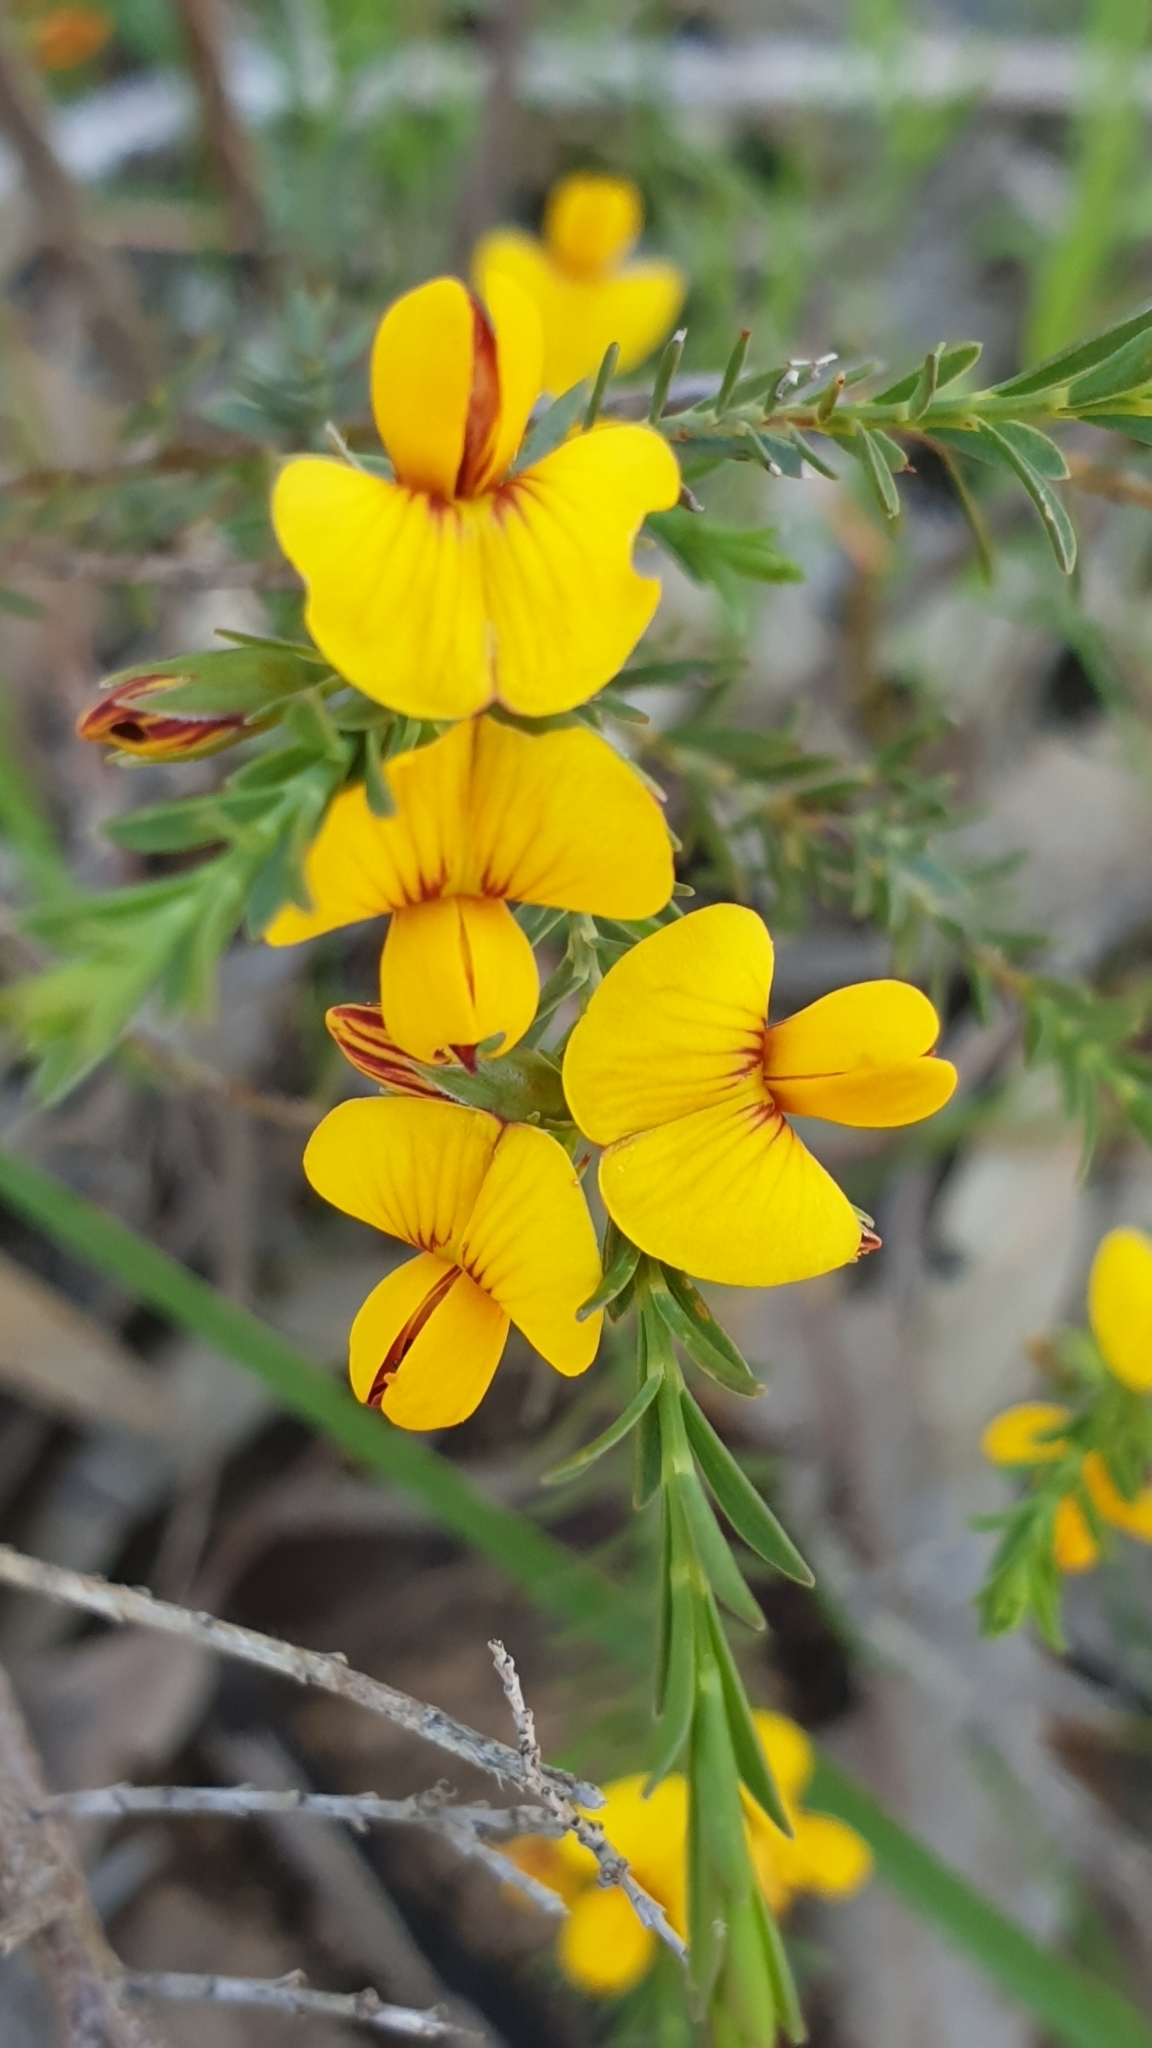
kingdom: Plantae
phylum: Tracheophyta
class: Magnoliopsida
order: Fabales
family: Fabaceae
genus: Eutaxia
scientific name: Eutaxia diffusa
